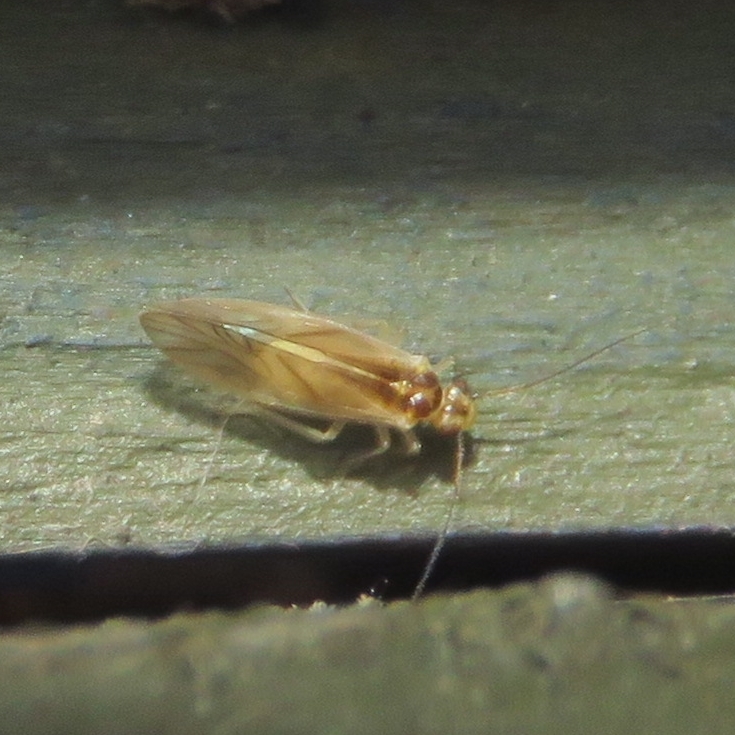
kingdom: Animalia
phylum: Arthropoda
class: Insecta
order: Psocodea
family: Caeciliusidae
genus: Valenzuela
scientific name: Valenzuela flavidus
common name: Yellow barklouse
